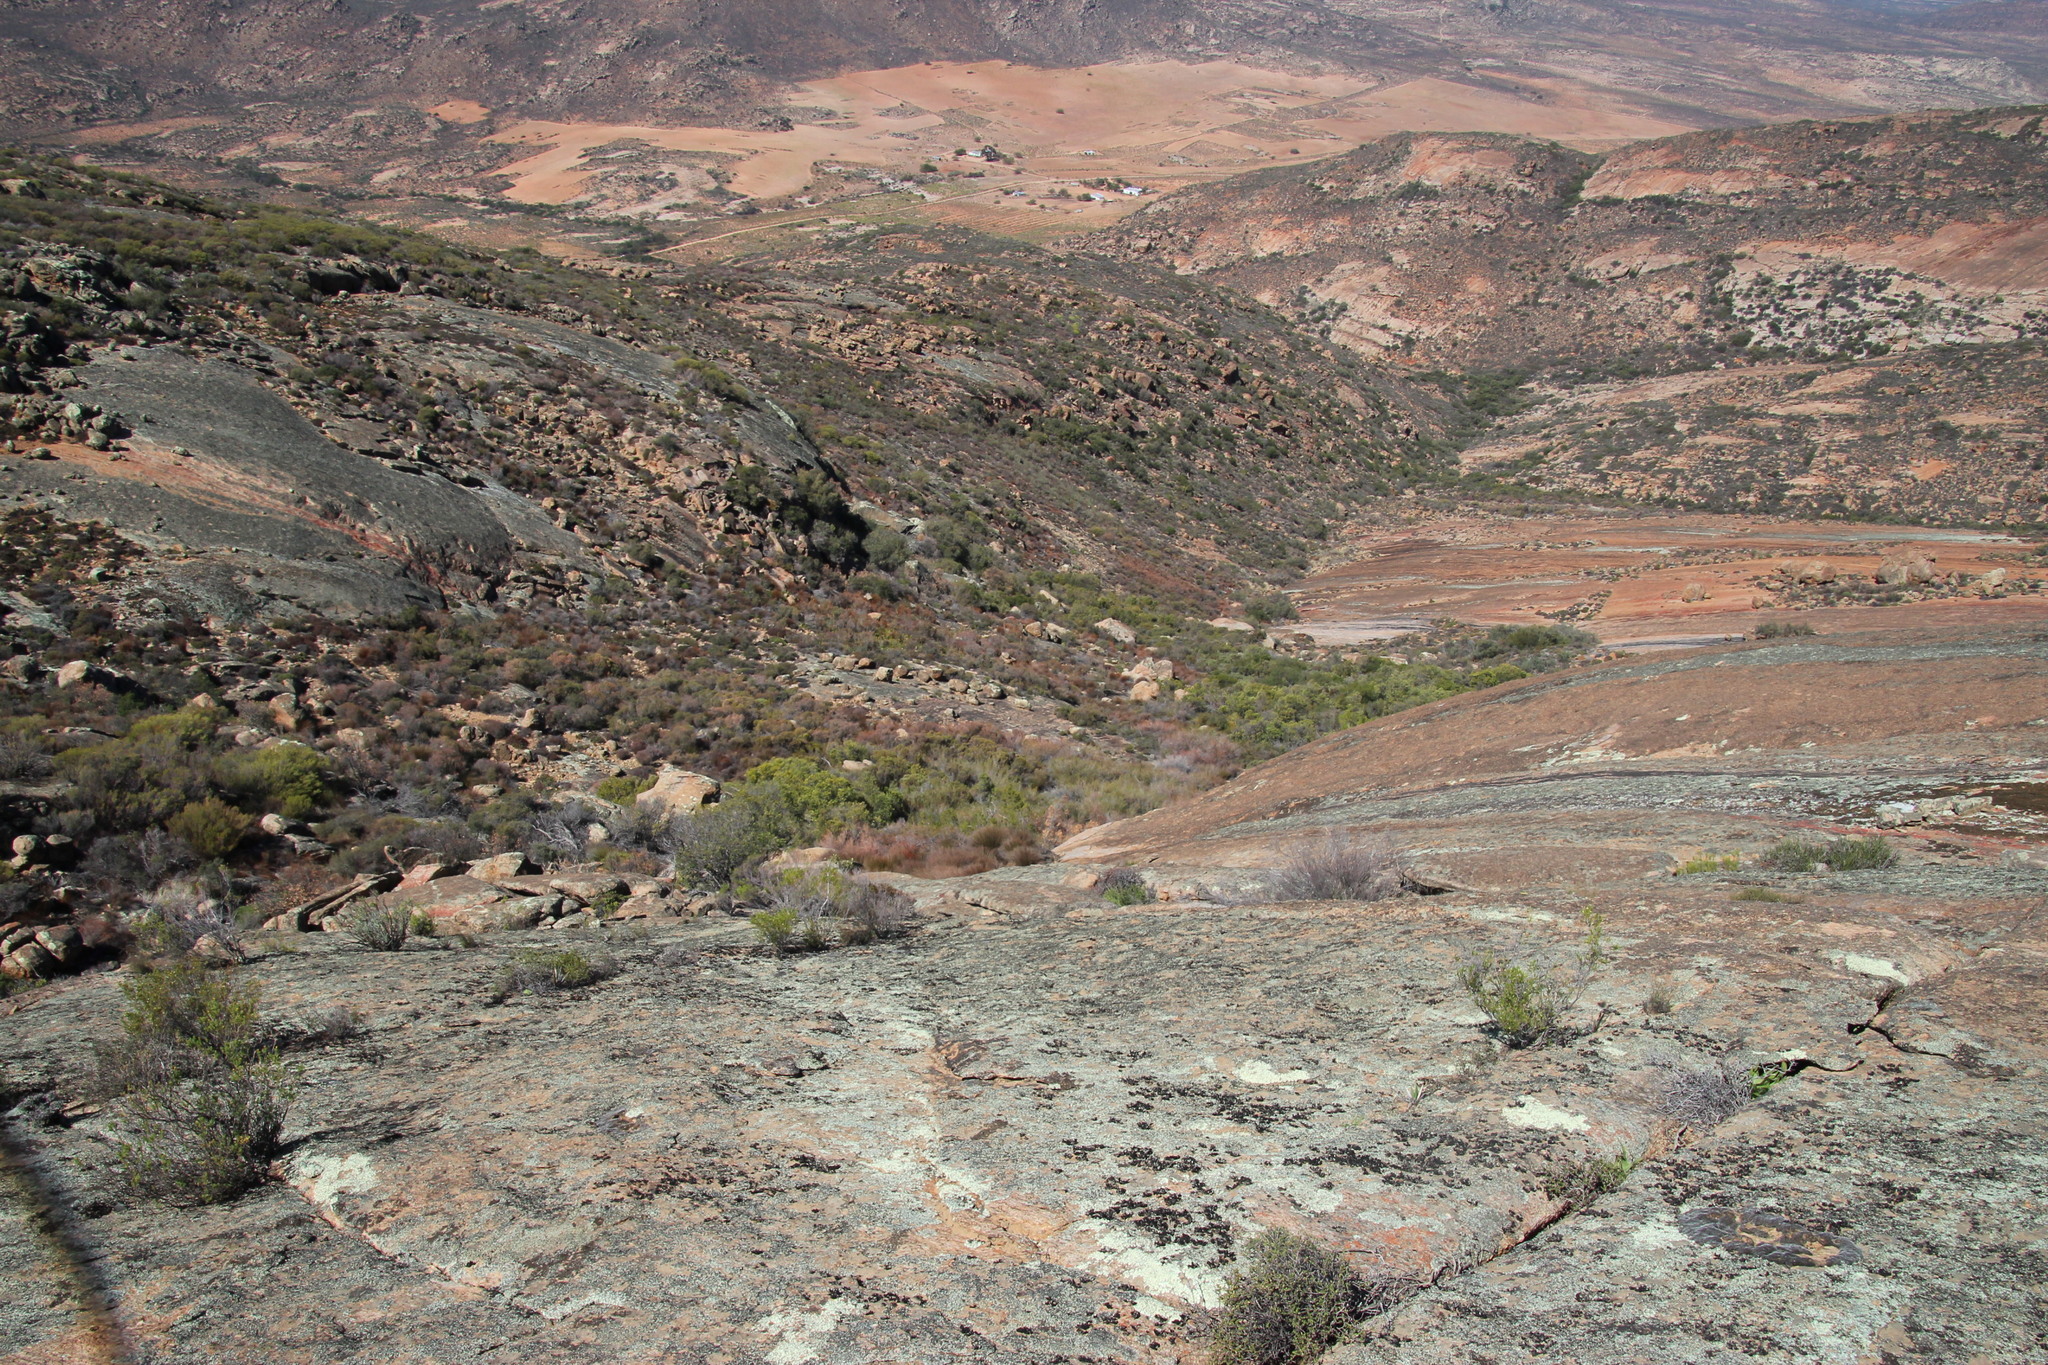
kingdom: Plantae
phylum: Tracheophyta
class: Liliopsida
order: Poales
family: Restionaceae
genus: Restio
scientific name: Restio vilis
